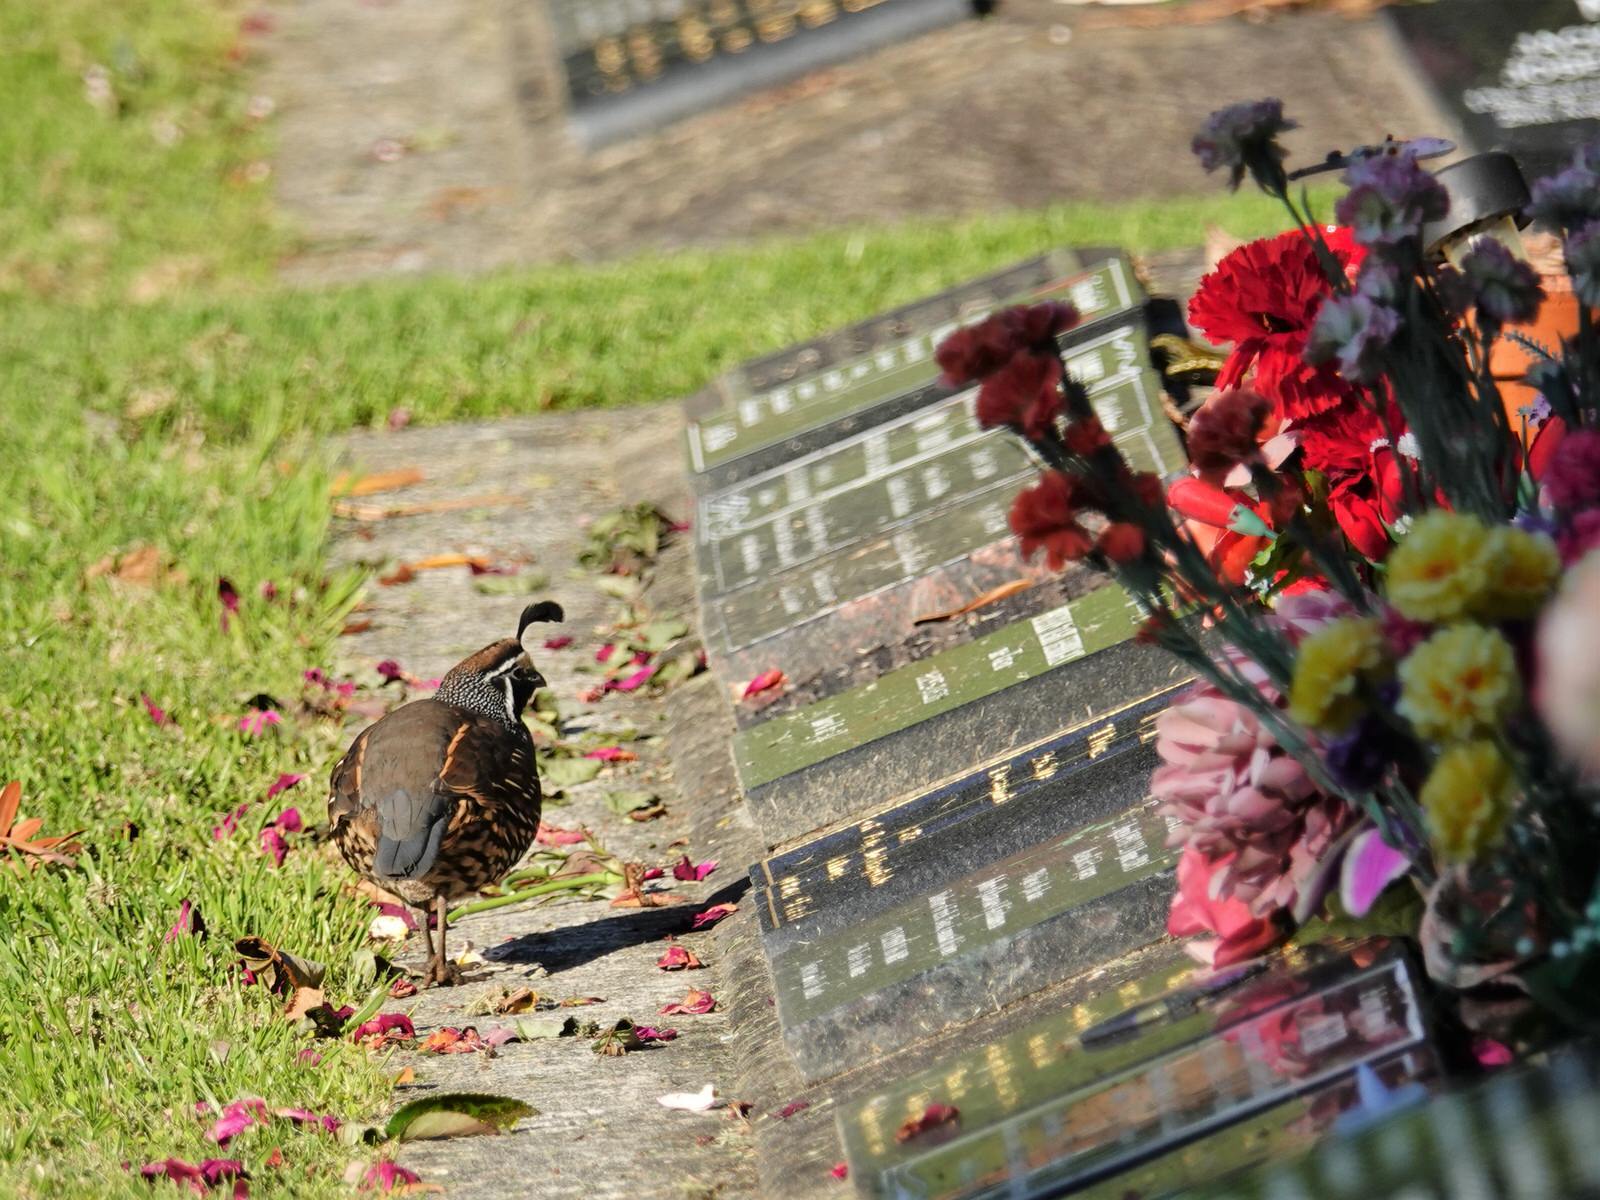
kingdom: Animalia
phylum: Chordata
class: Aves
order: Galliformes
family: Odontophoridae
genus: Callipepla
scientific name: Callipepla californica
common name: California quail
